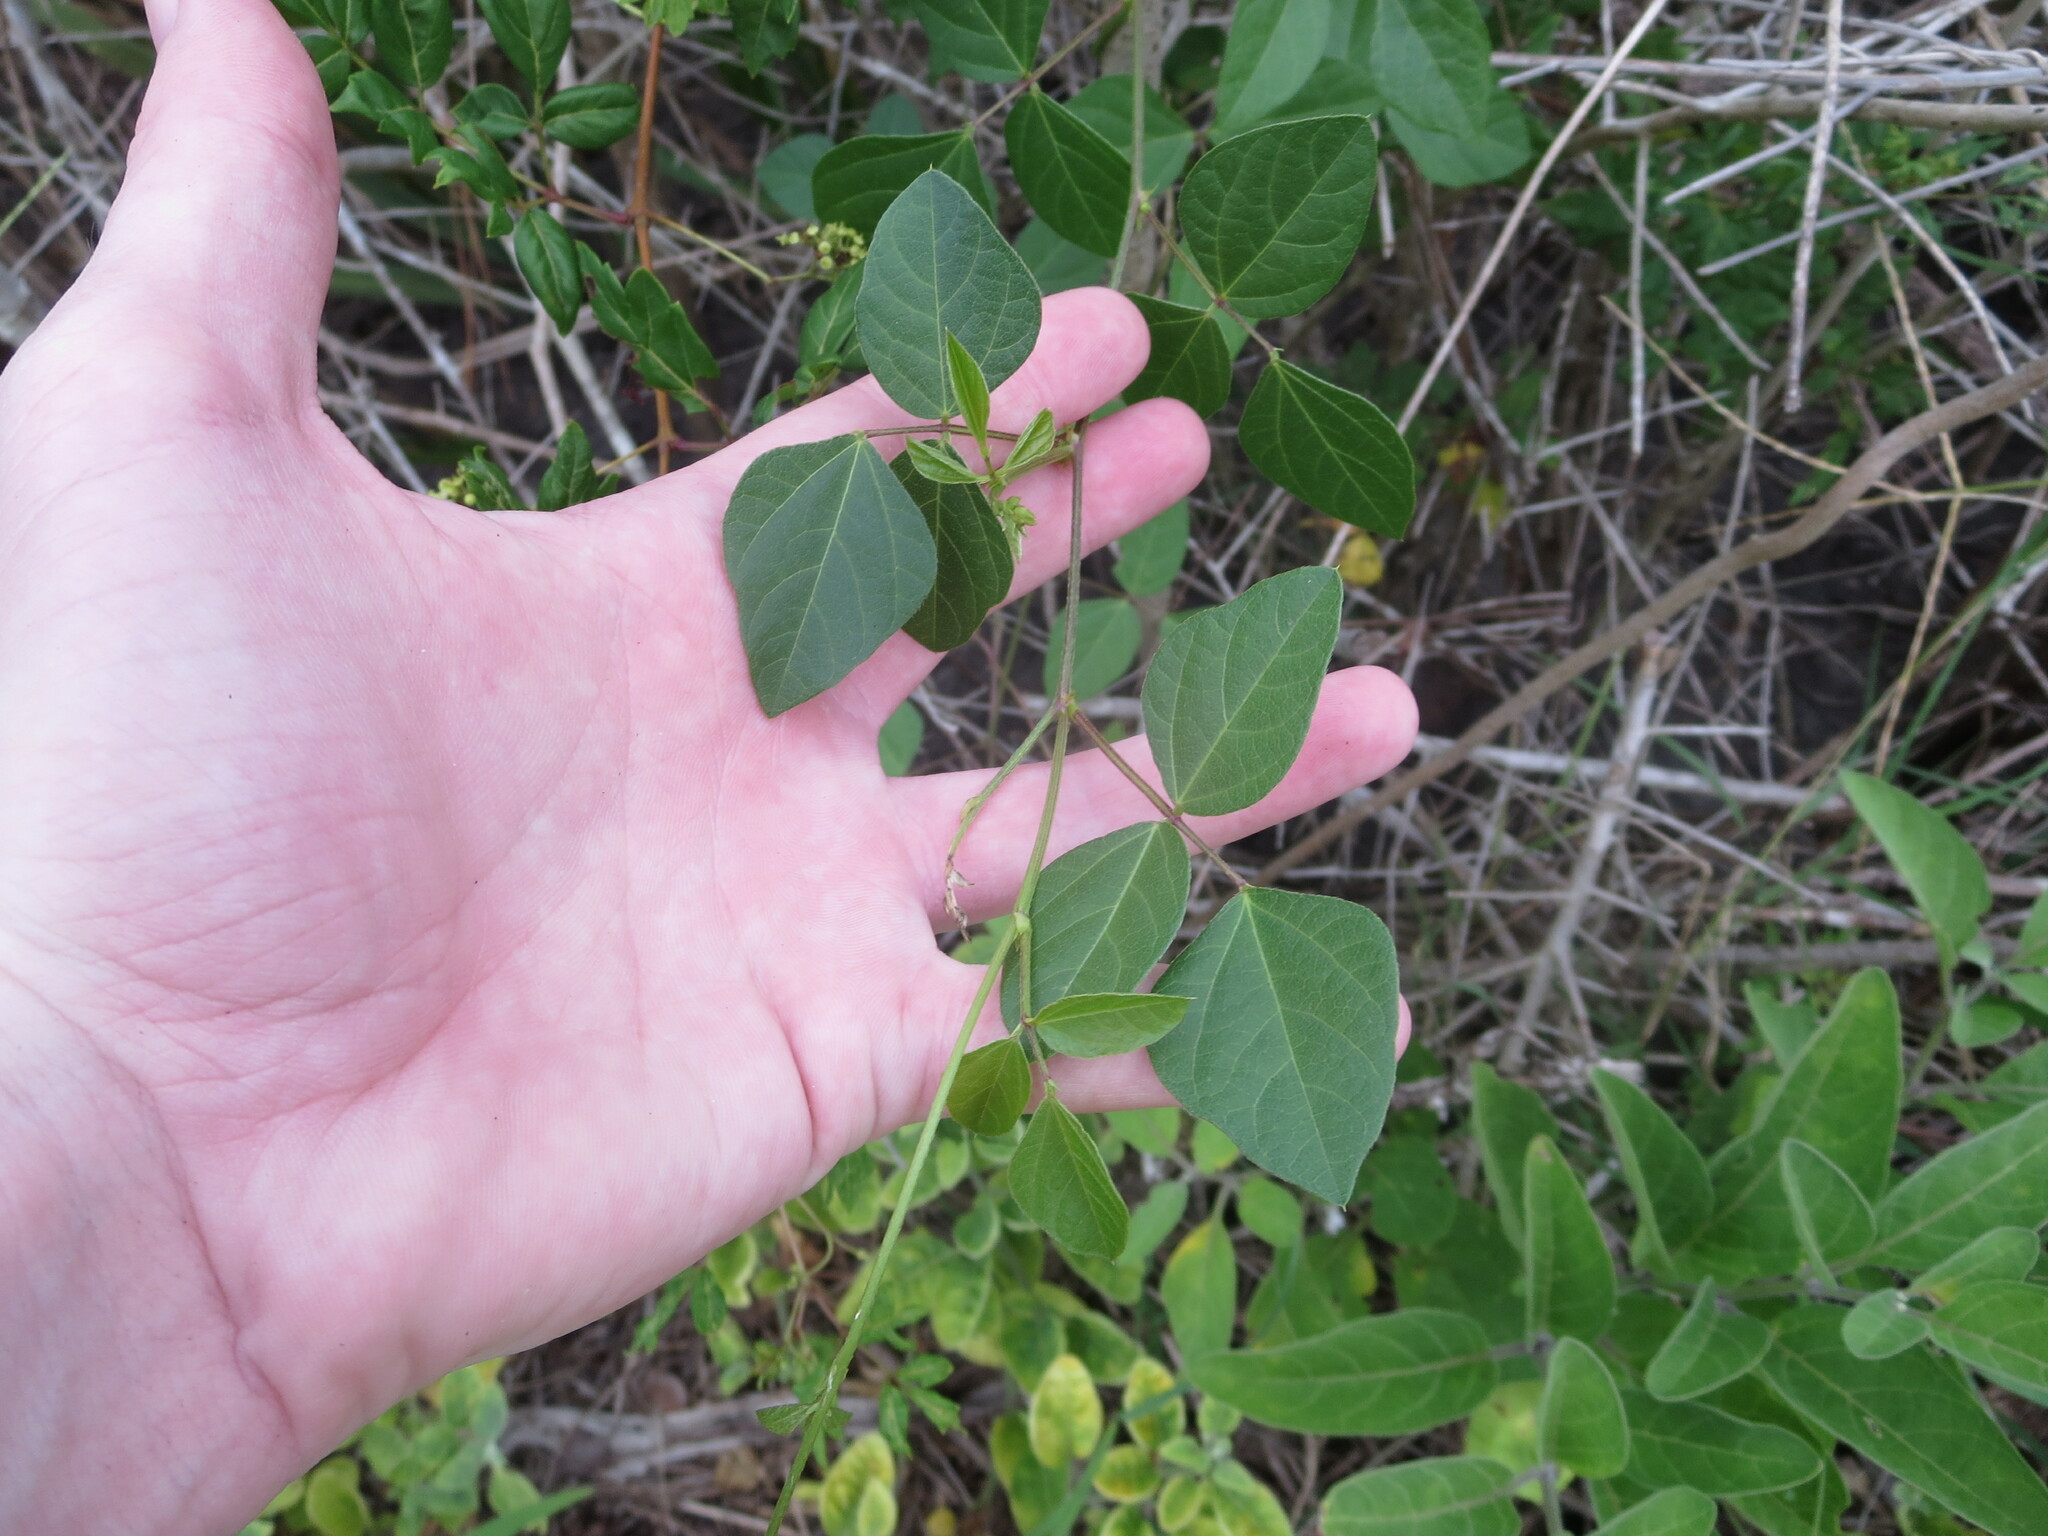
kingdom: Plantae
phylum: Tracheophyta
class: Magnoliopsida
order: Fabales
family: Fabaceae
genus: Strophostyles
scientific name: Strophostyles helvola
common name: Trailing wild bean
